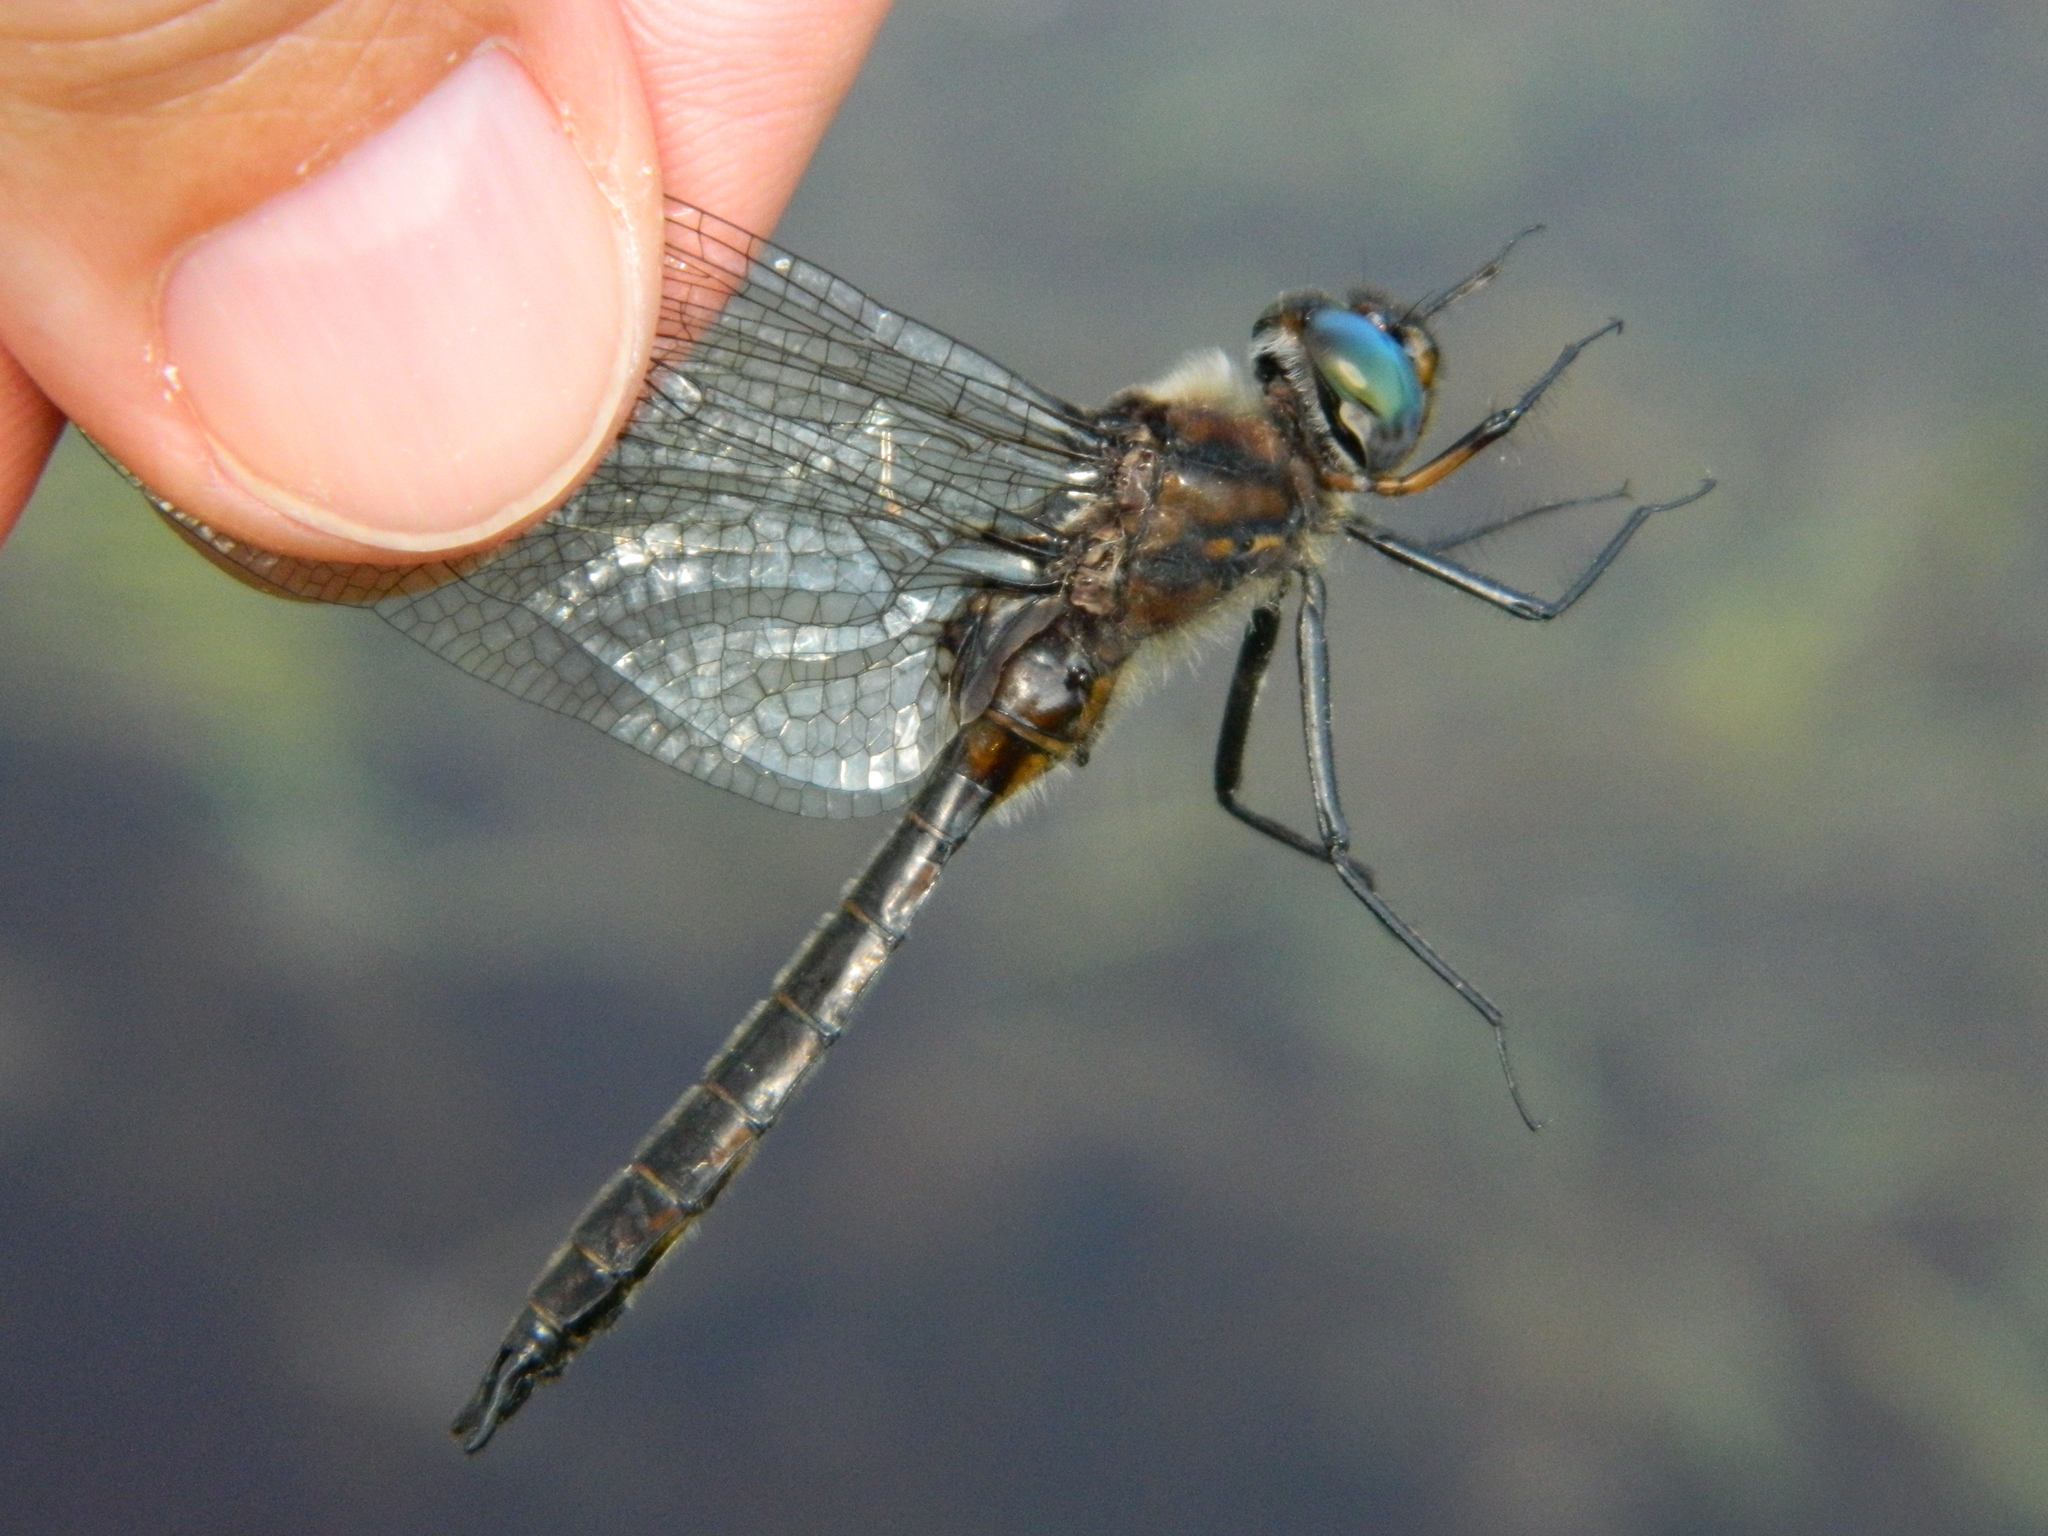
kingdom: Animalia
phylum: Arthropoda
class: Insecta
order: Odonata
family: Corduliidae
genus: Epitheca
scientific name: Epitheca spinigera
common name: Spiny baskettail
